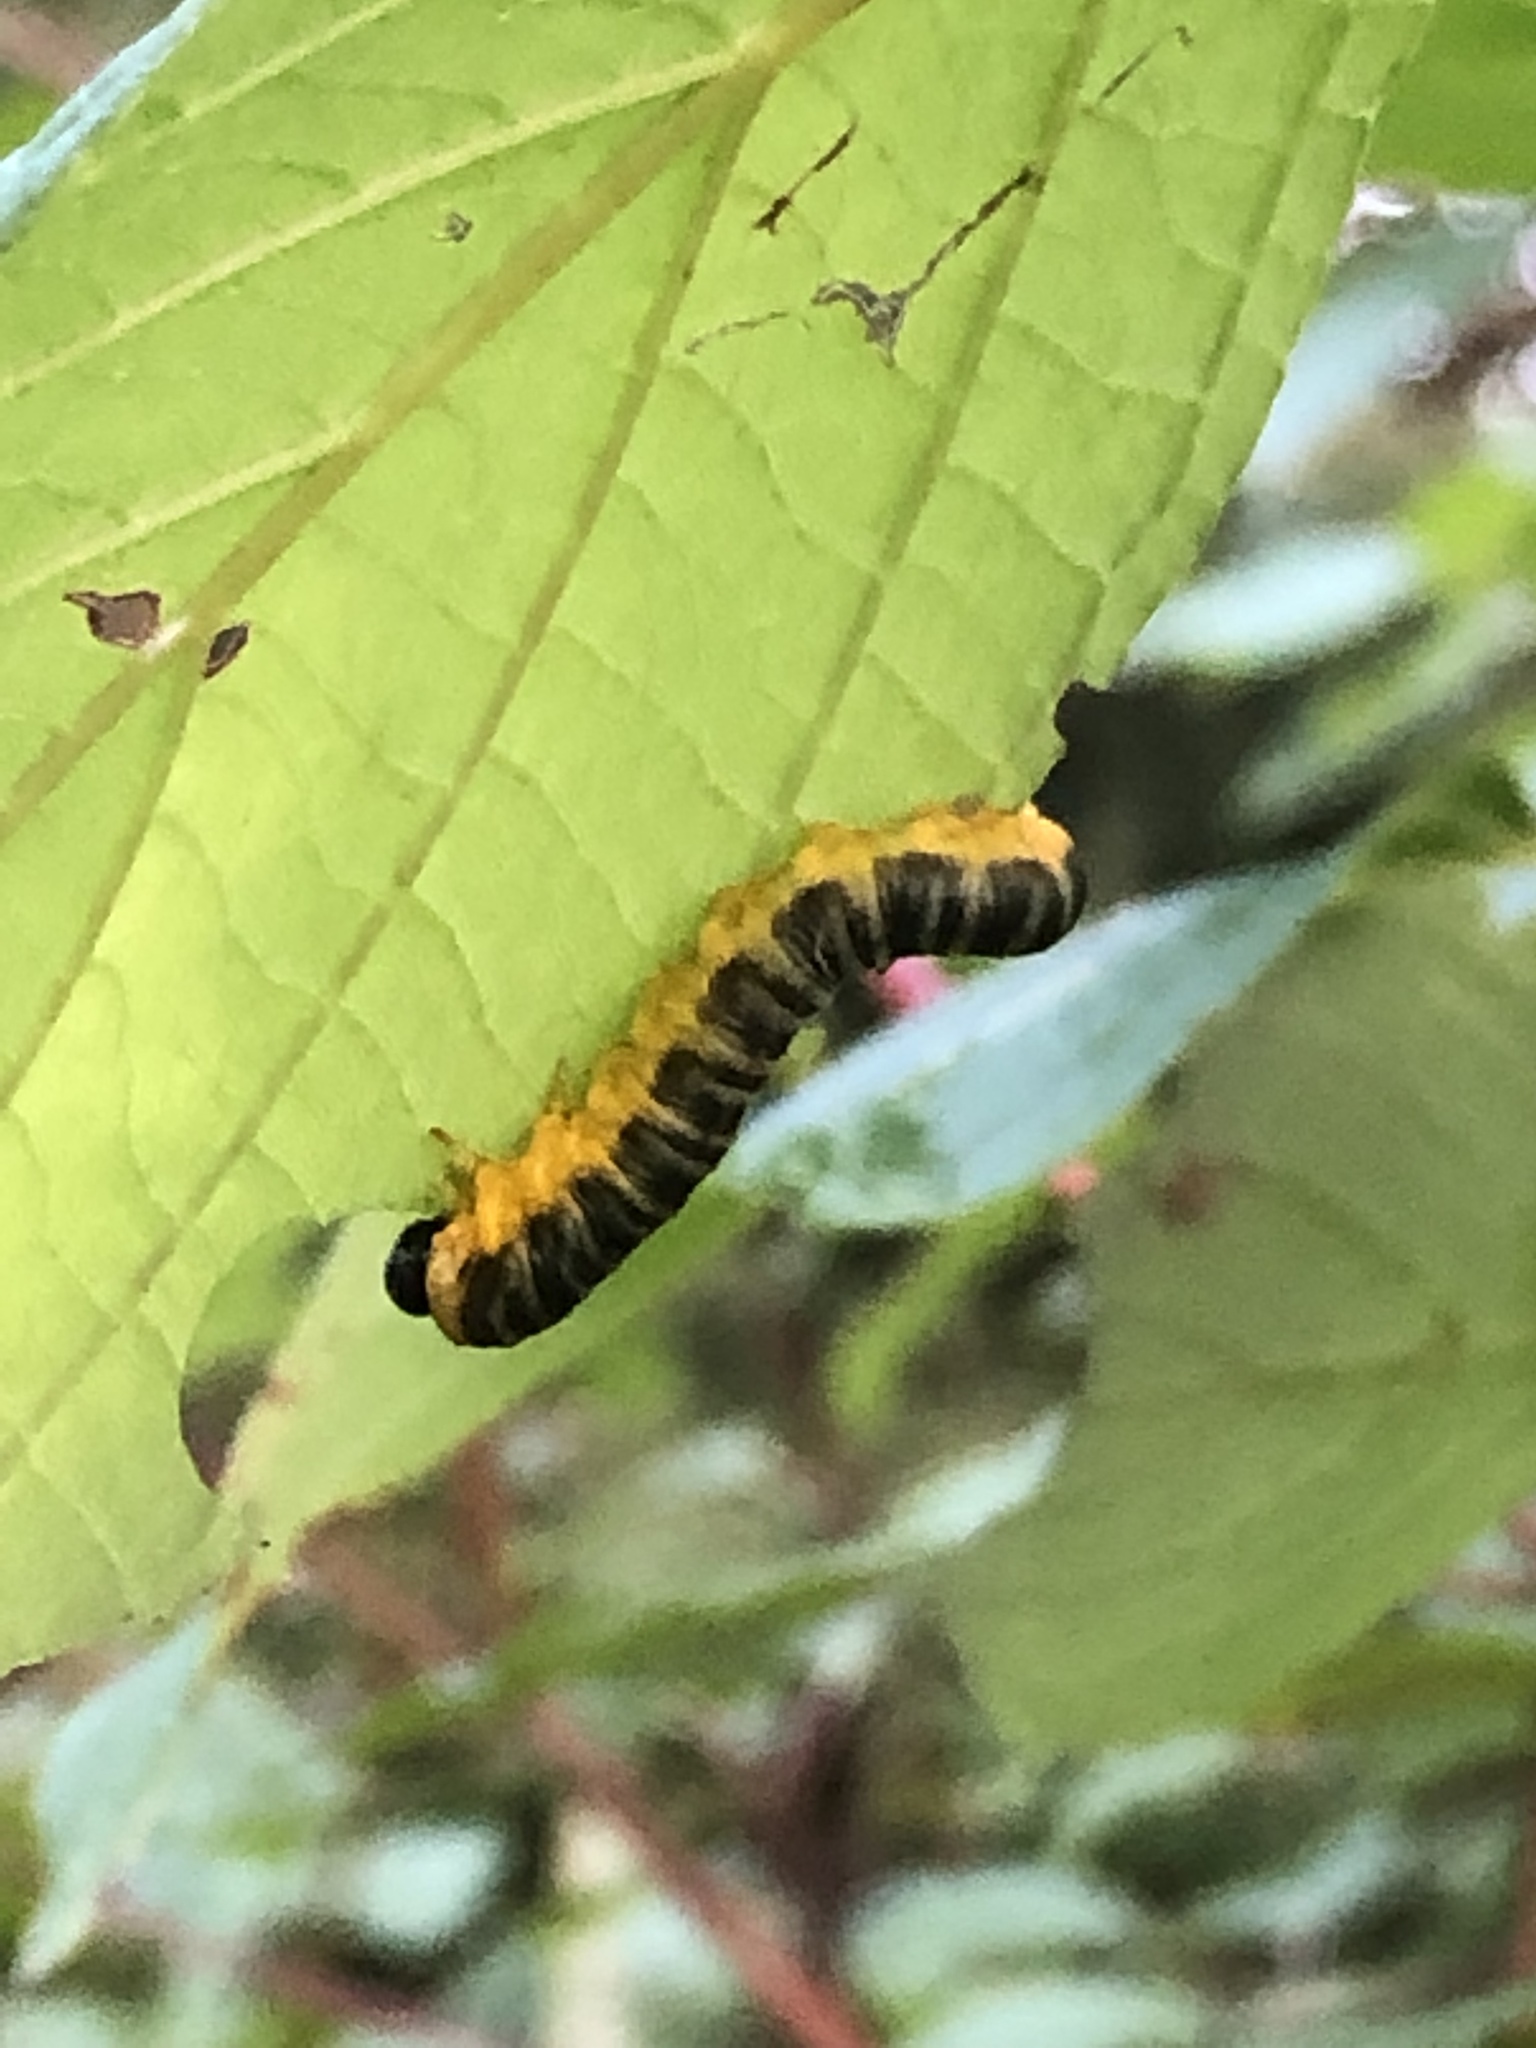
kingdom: Animalia
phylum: Arthropoda
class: Insecta
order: Hymenoptera
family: Tenthredinidae
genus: Macremphytus
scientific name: Macremphytus
